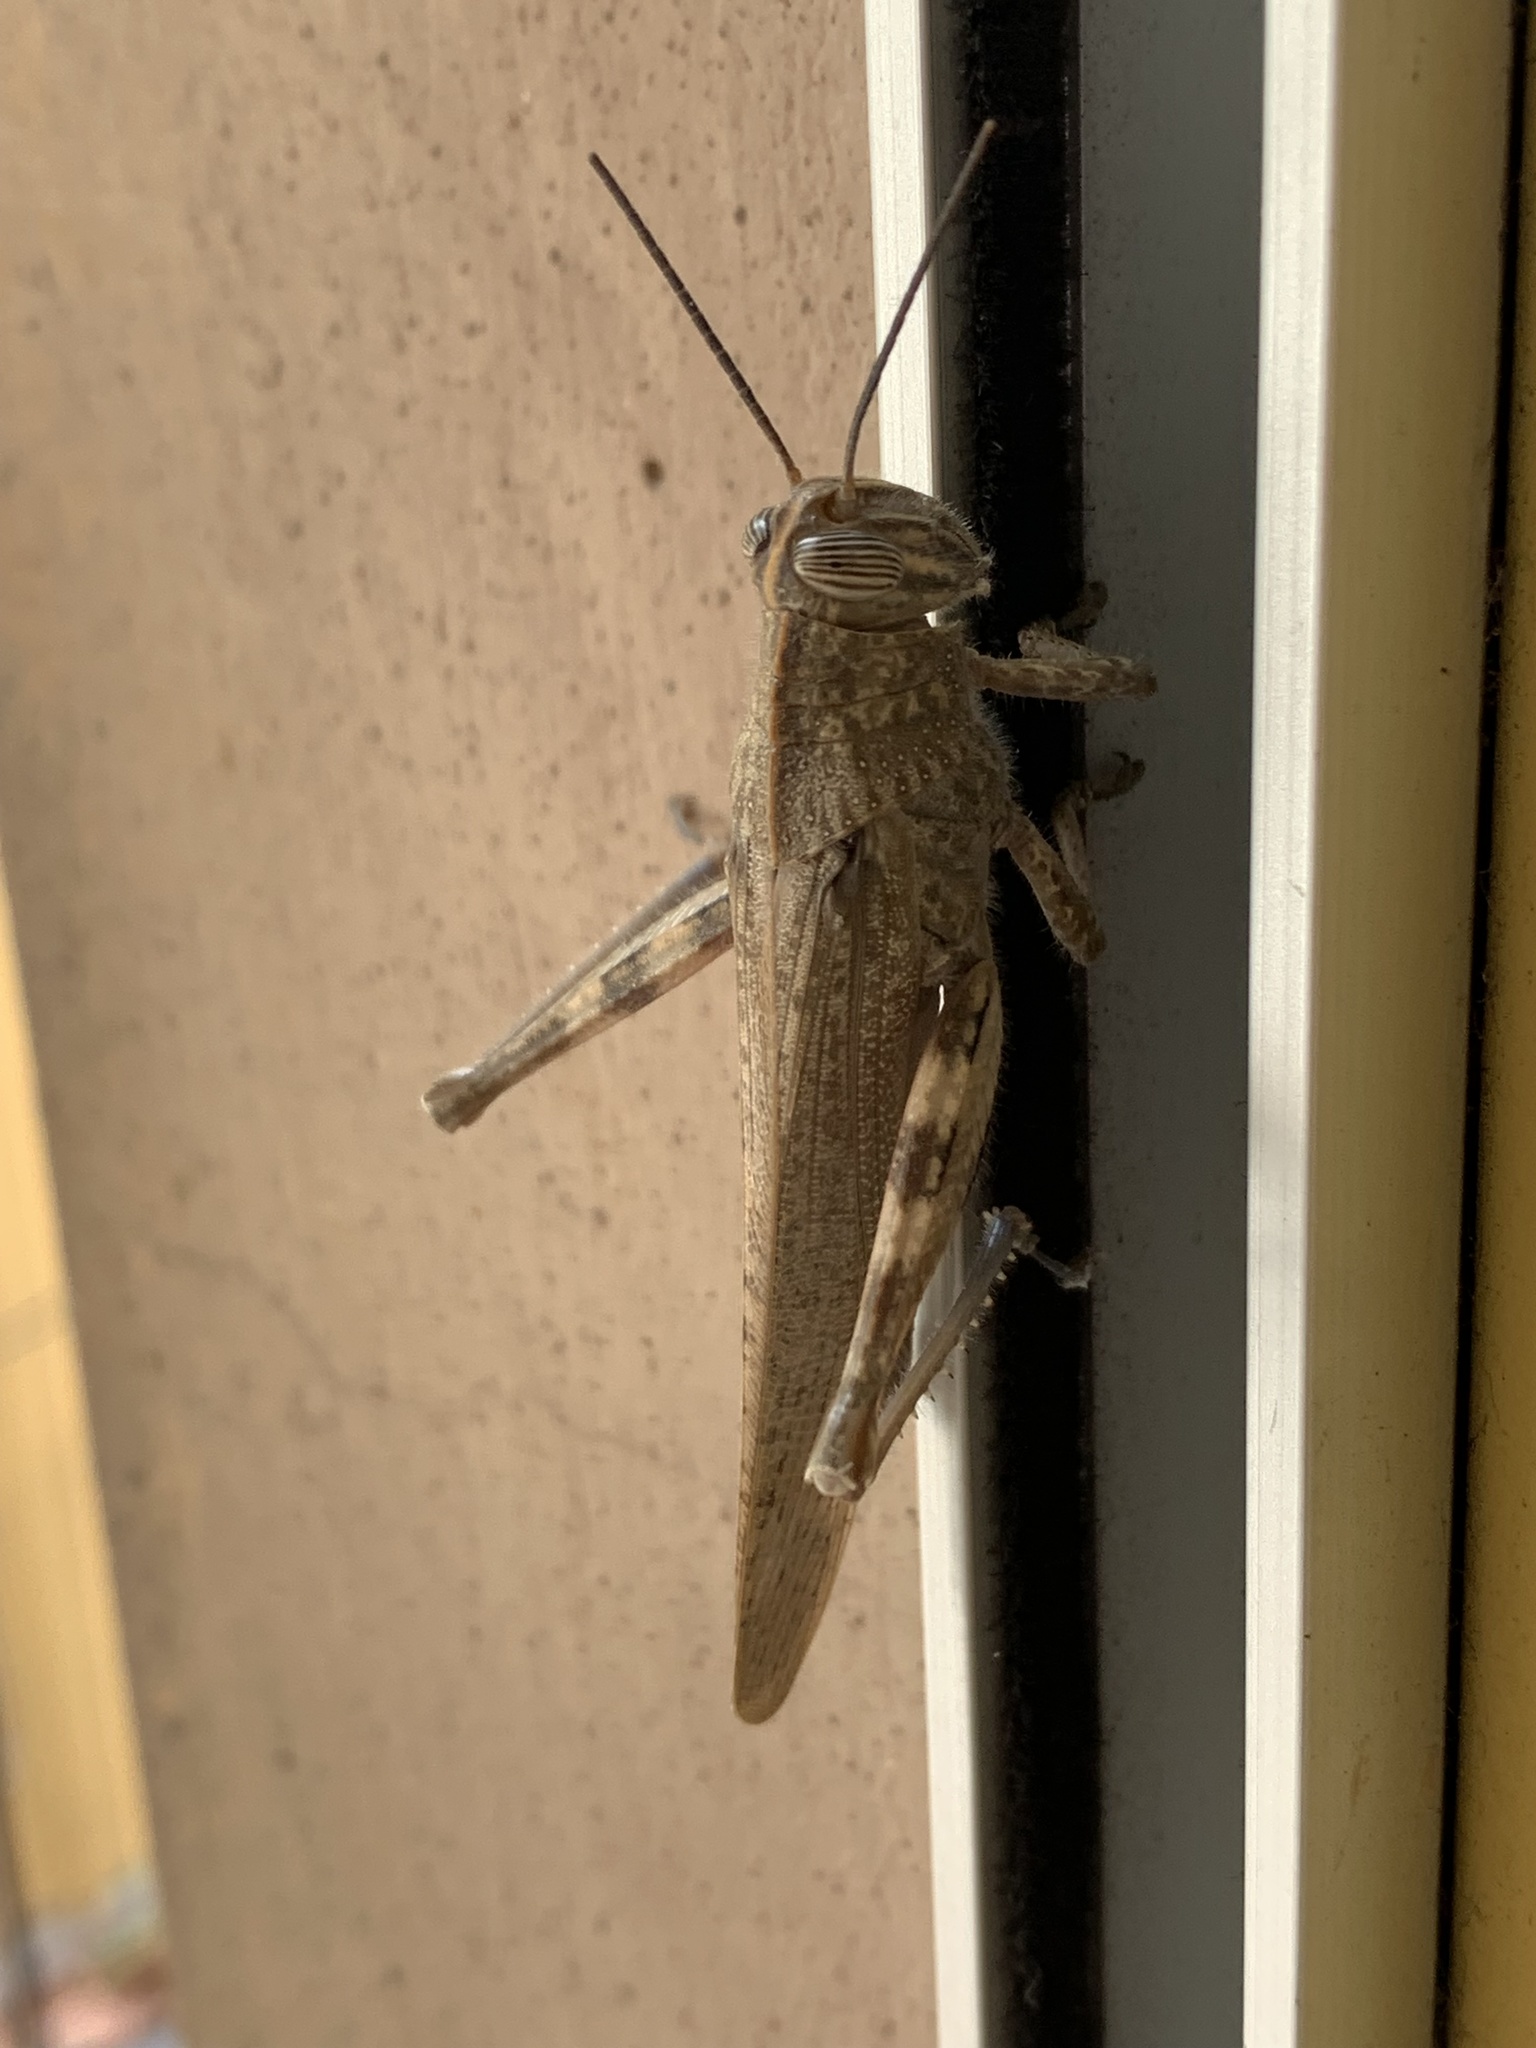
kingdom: Animalia
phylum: Arthropoda
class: Insecta
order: Orthoptera
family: Acrididae
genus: Anacridium
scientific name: Anacridium aegyptium
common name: Egyptian grasshopper
